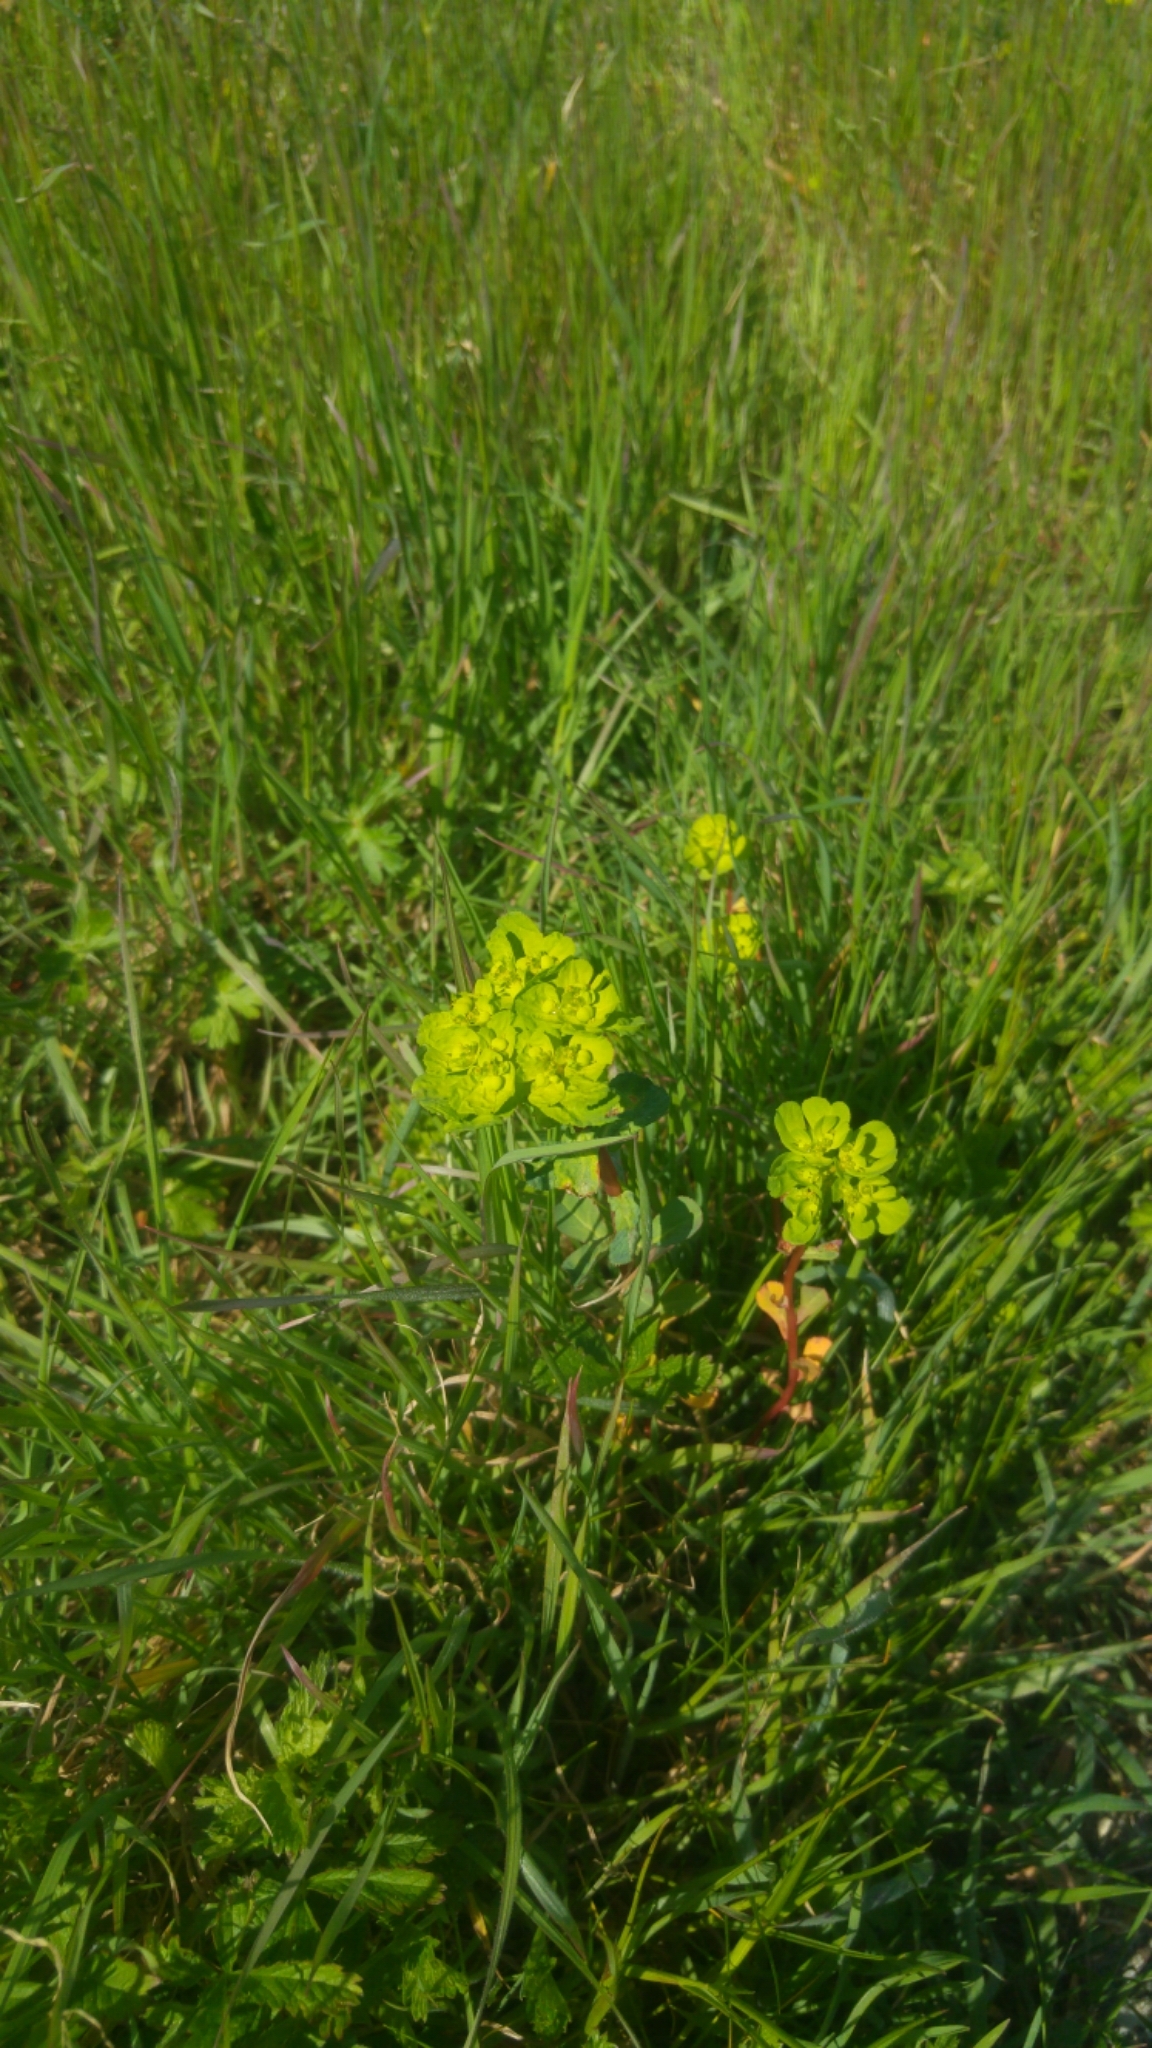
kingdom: Plantae
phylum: Tracheophyta
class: Magnoliopsida
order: Malpighiales
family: Euphorbiaceae
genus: Euphorbia
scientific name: Euphorbia helioscopia
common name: Sun spurge
